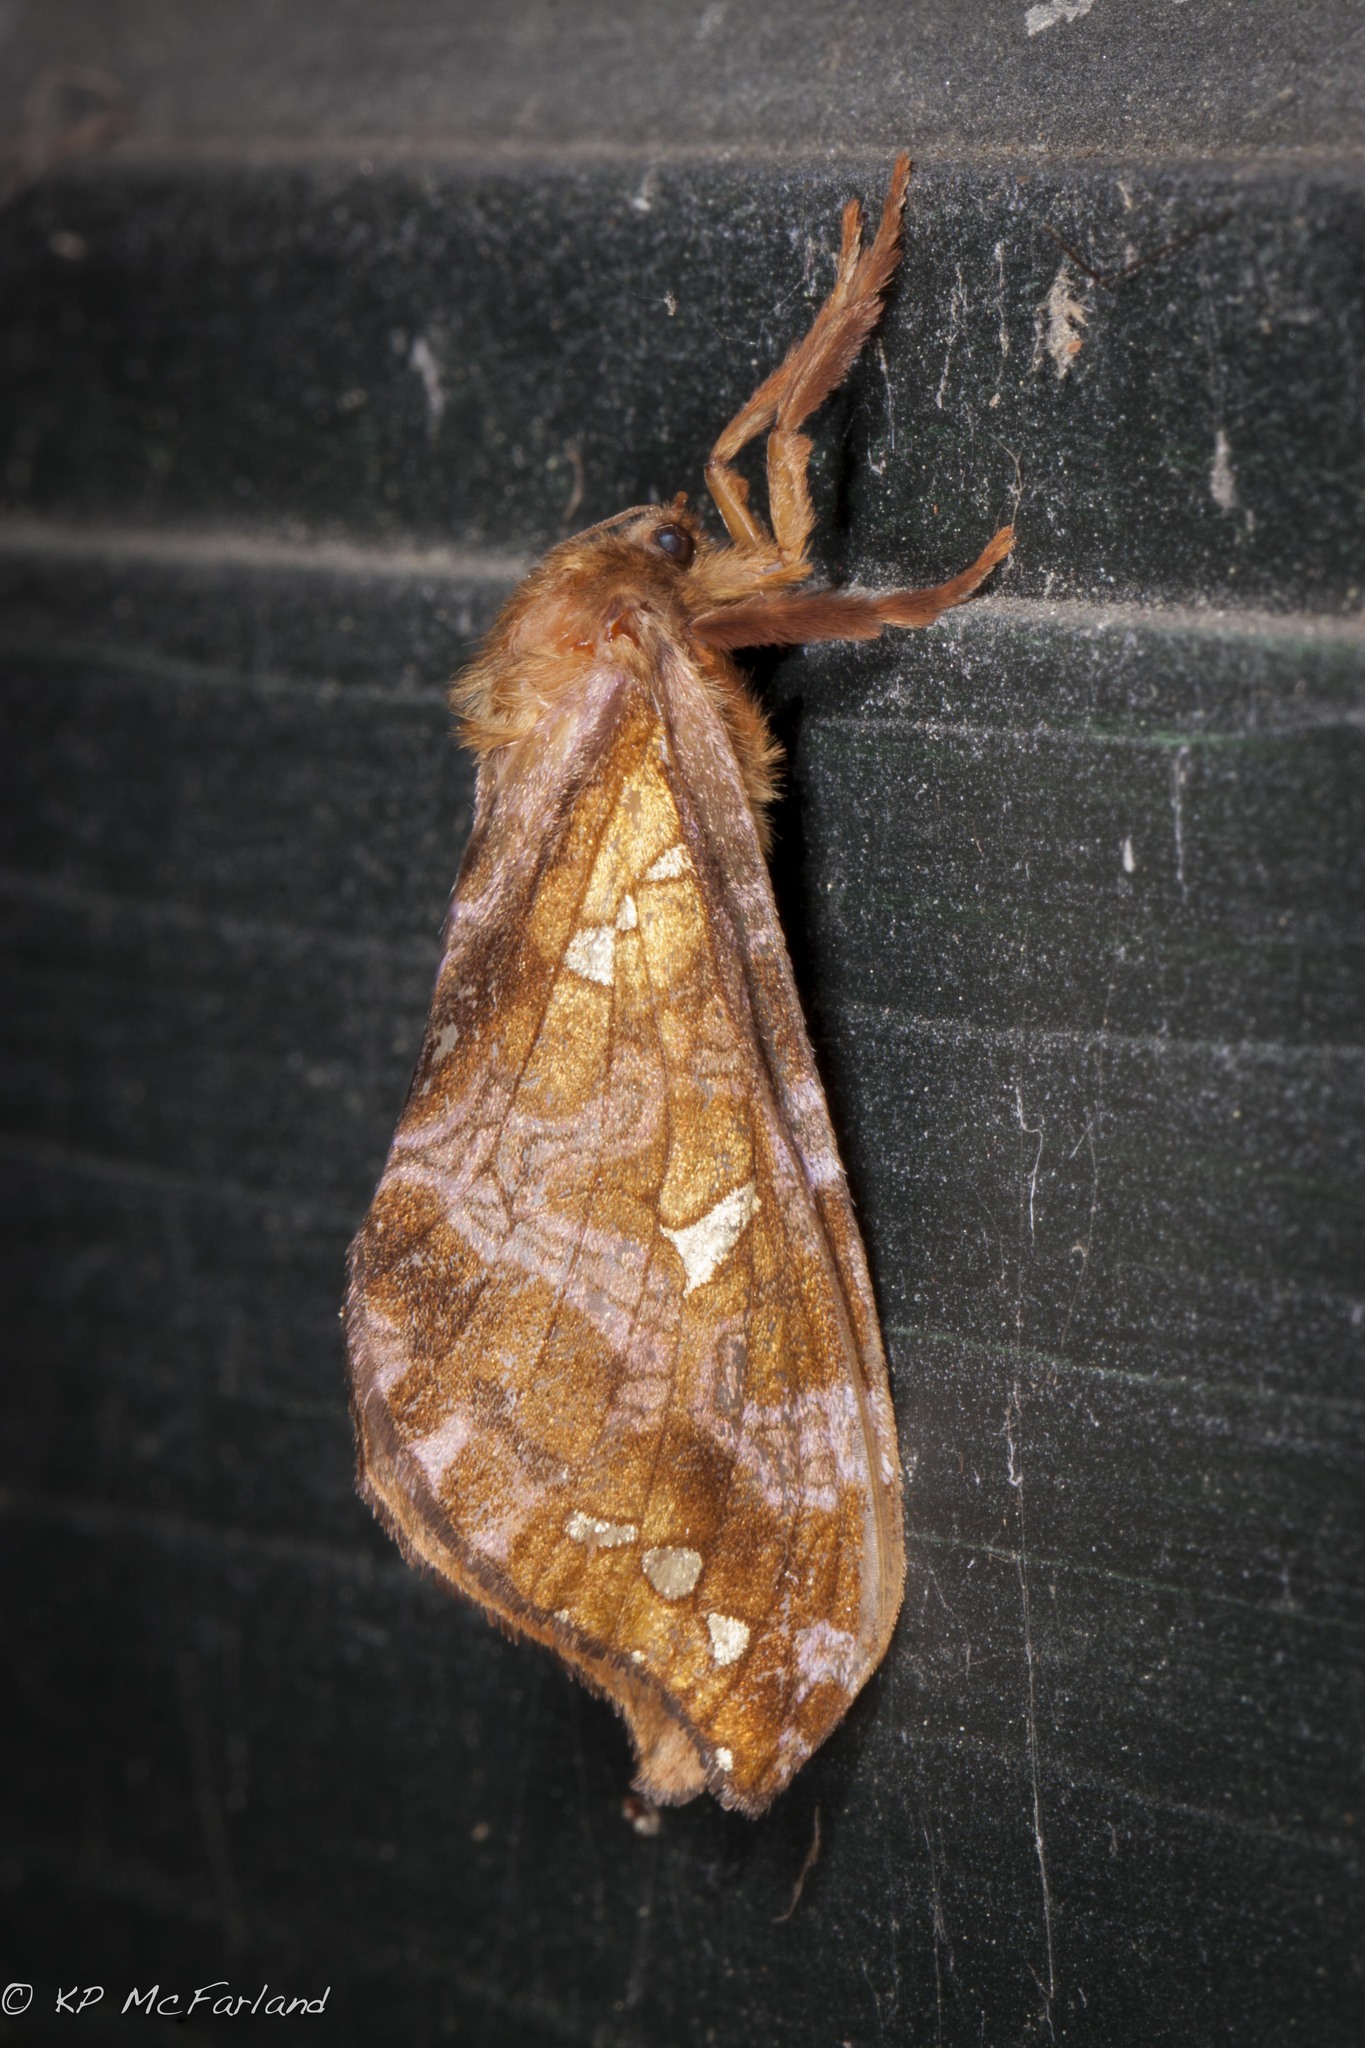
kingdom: Animalia
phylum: Arthropoda
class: Insecta
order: Lepidoptera
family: Hepialidae
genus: Sthenopis
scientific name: Sthenopis pretiosus
